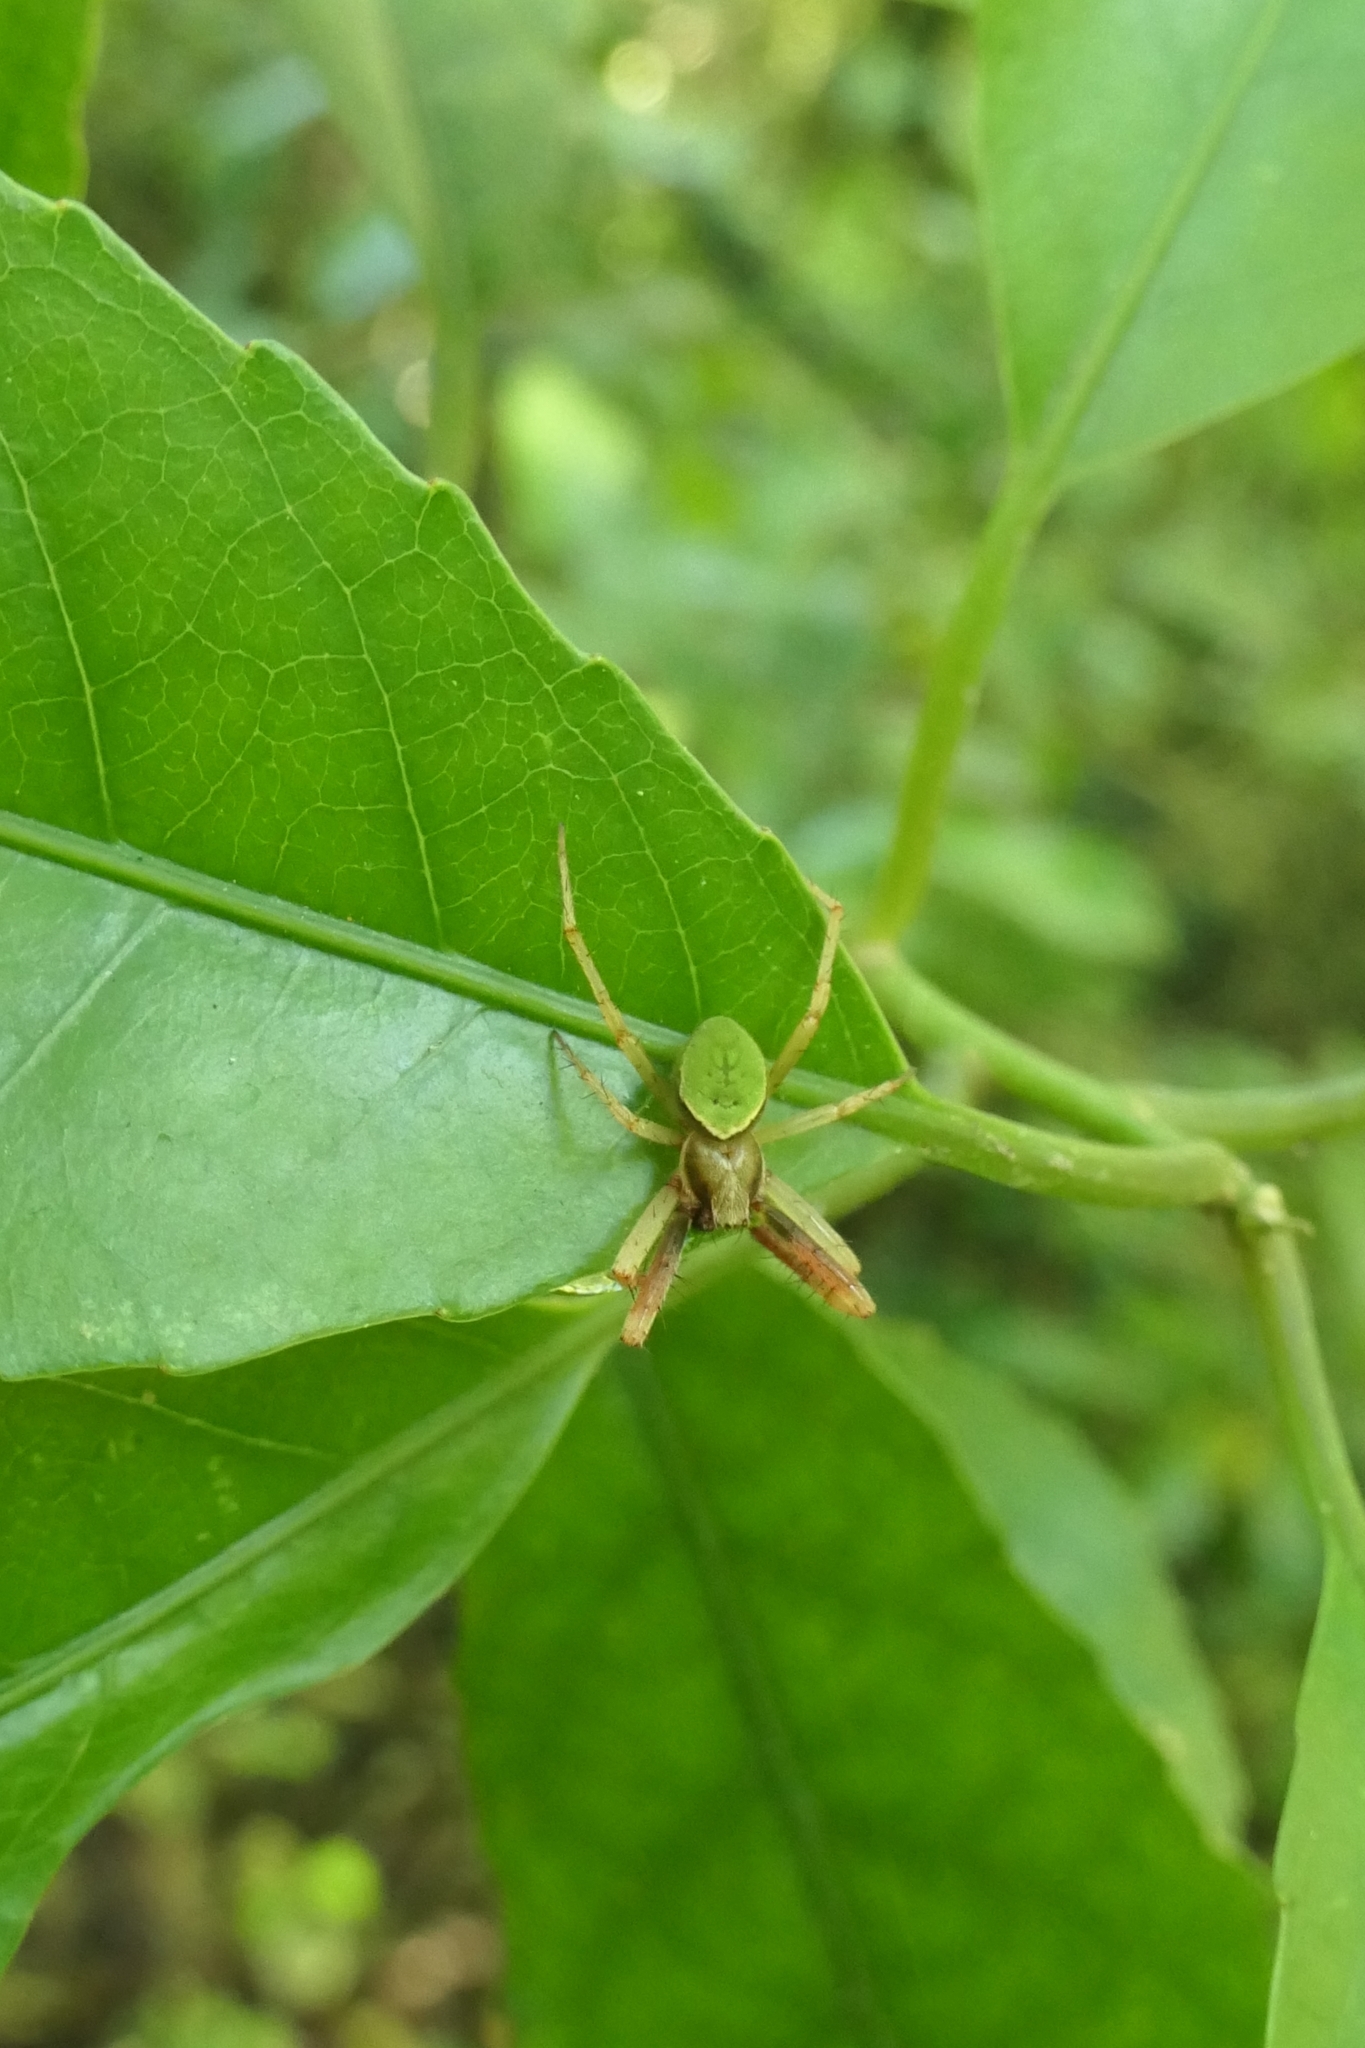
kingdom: Animalia
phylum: Arthropoda
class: Arachnida
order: Araneae
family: Araneidae
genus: Colaranea
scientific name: Colaranea viriditas
